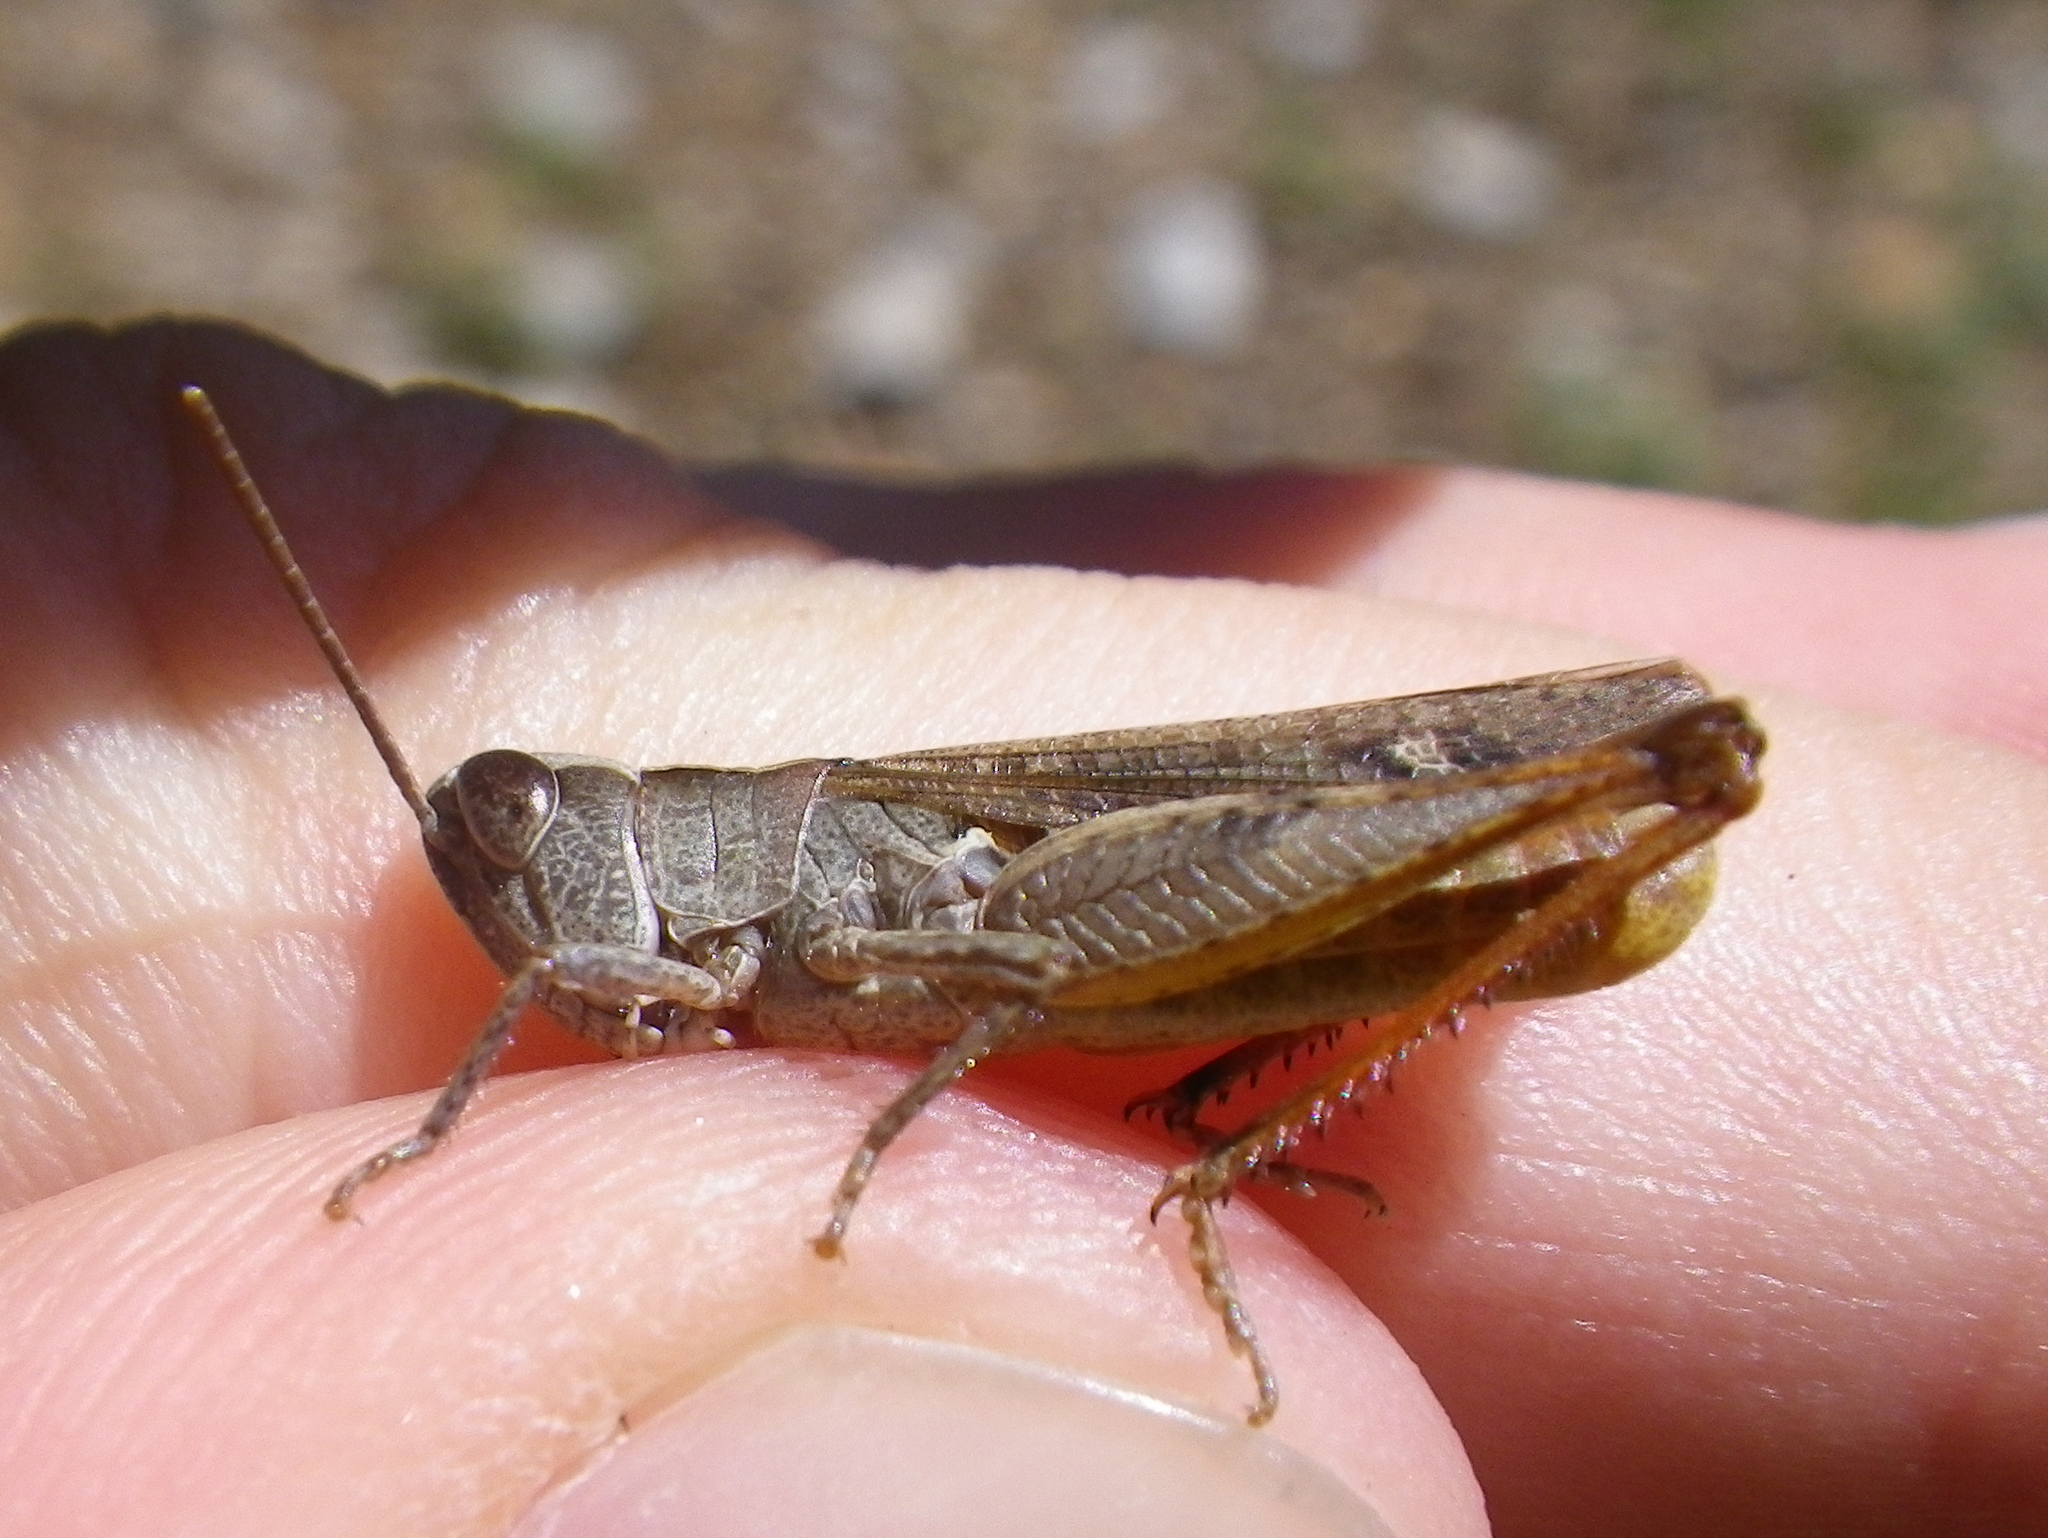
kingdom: Animalia
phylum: Arthropoda
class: Insecta
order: Orthoptera
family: Acrididae
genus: Chorthippus
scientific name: Chorthippus vagans
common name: Heath grasshopper
